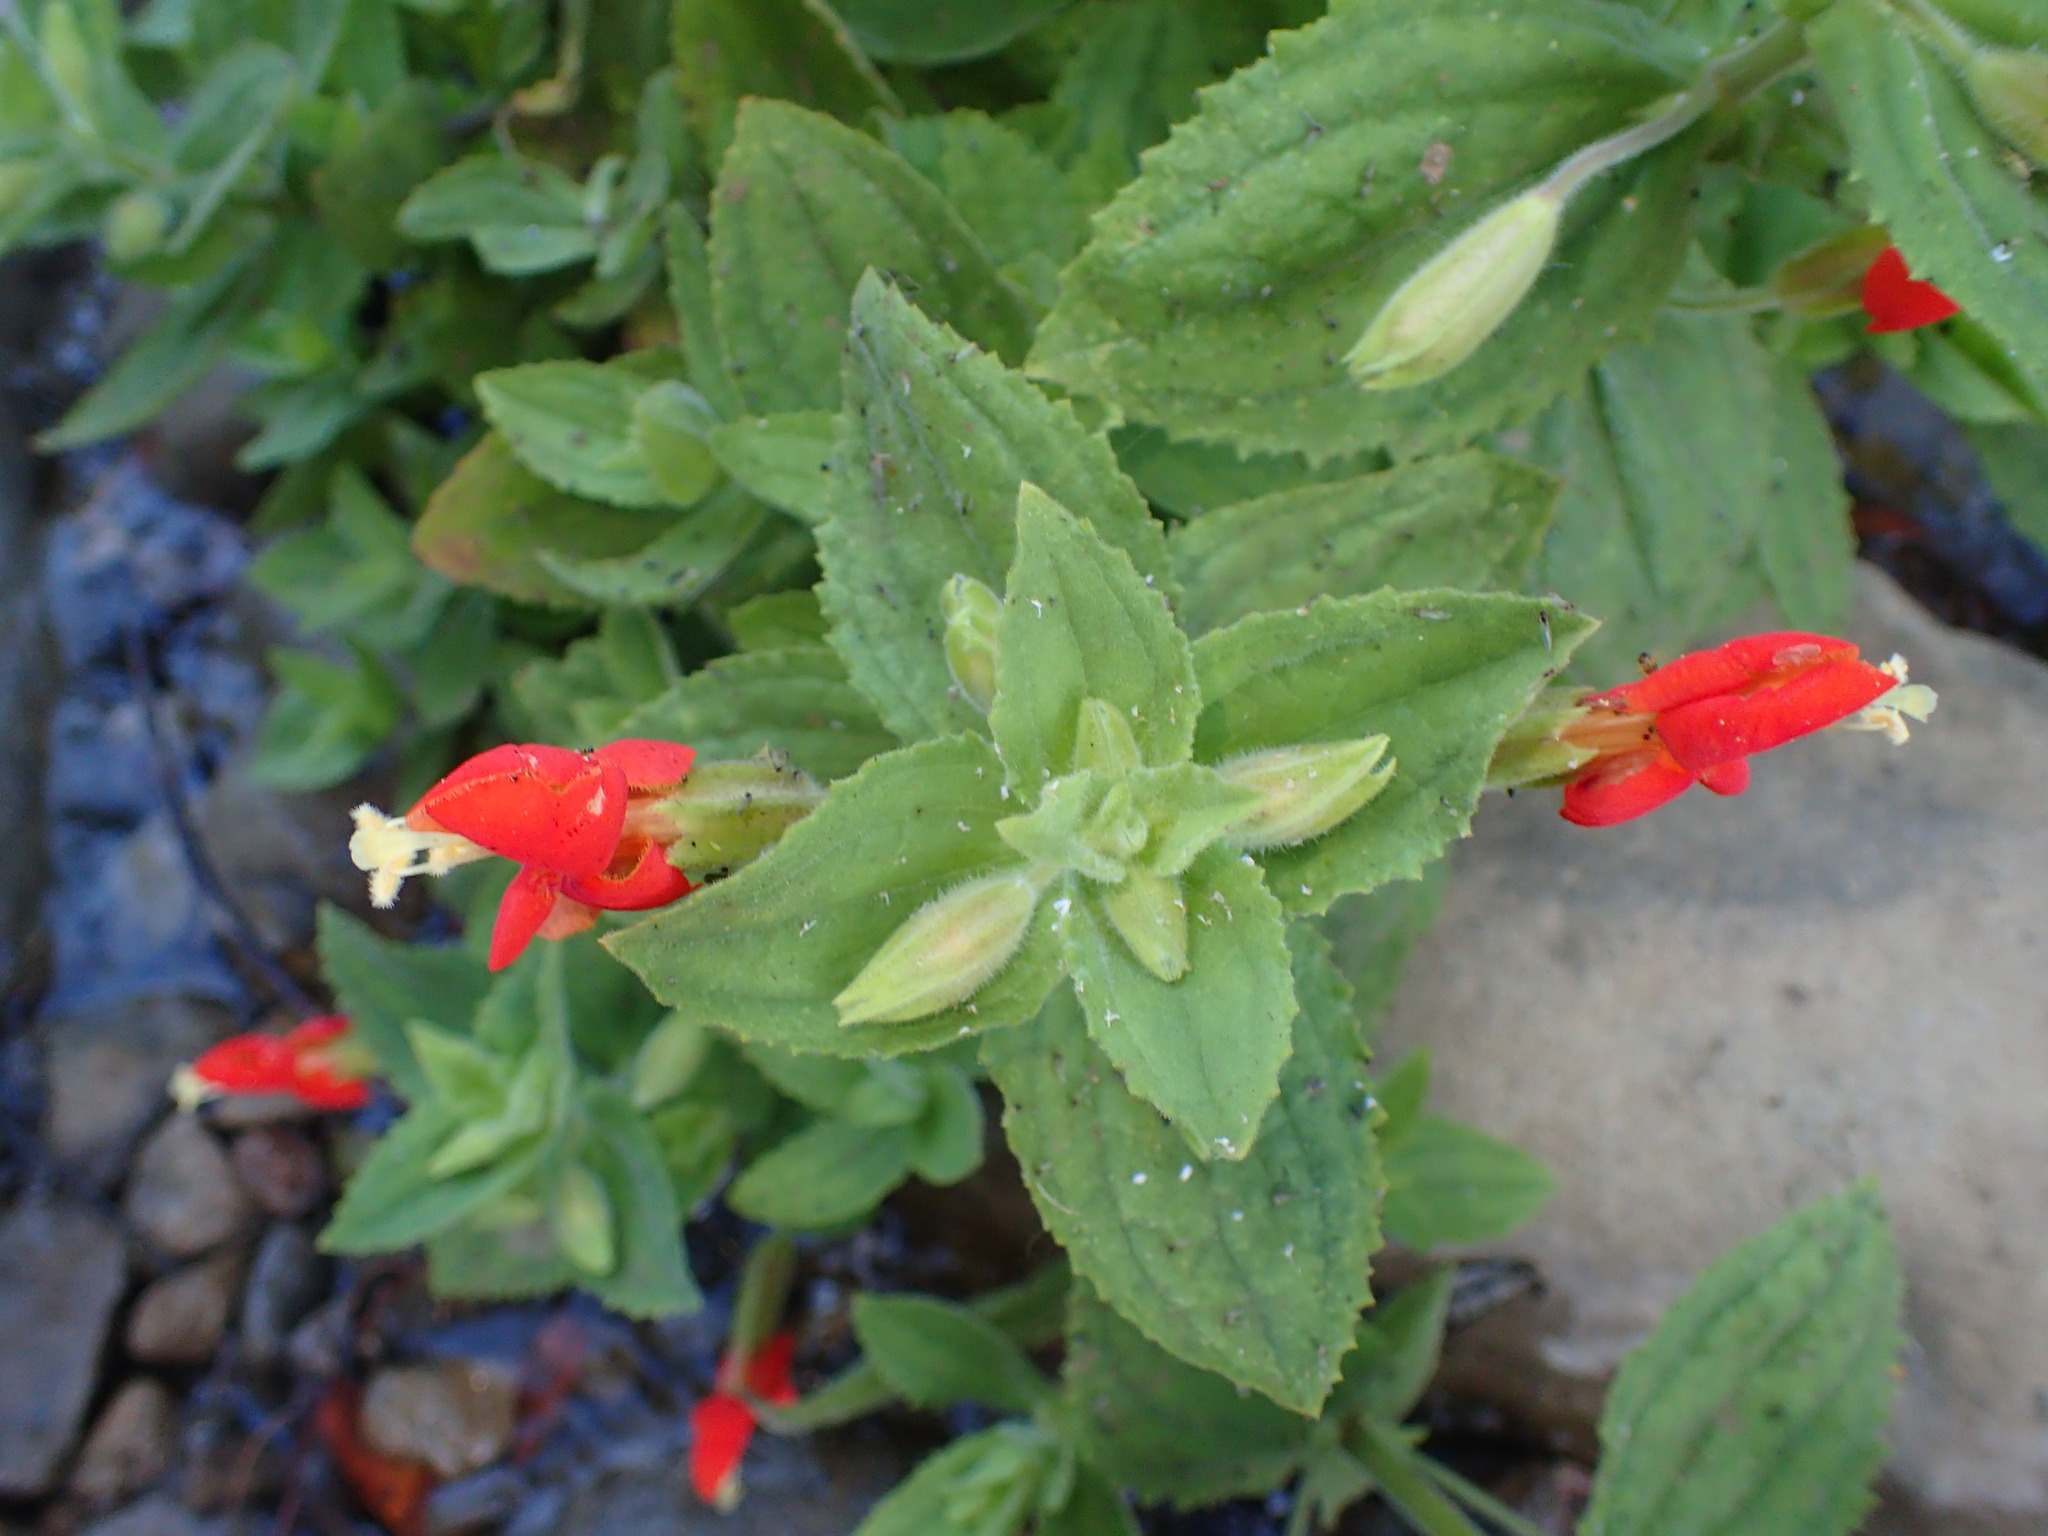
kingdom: Plantae
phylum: Tracheophyta
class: Magnoliopsida
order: Lamiales
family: Phrymaceae
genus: Erythranthe
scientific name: Erythranthe cardinalis
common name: Scarlet monkey-flower
